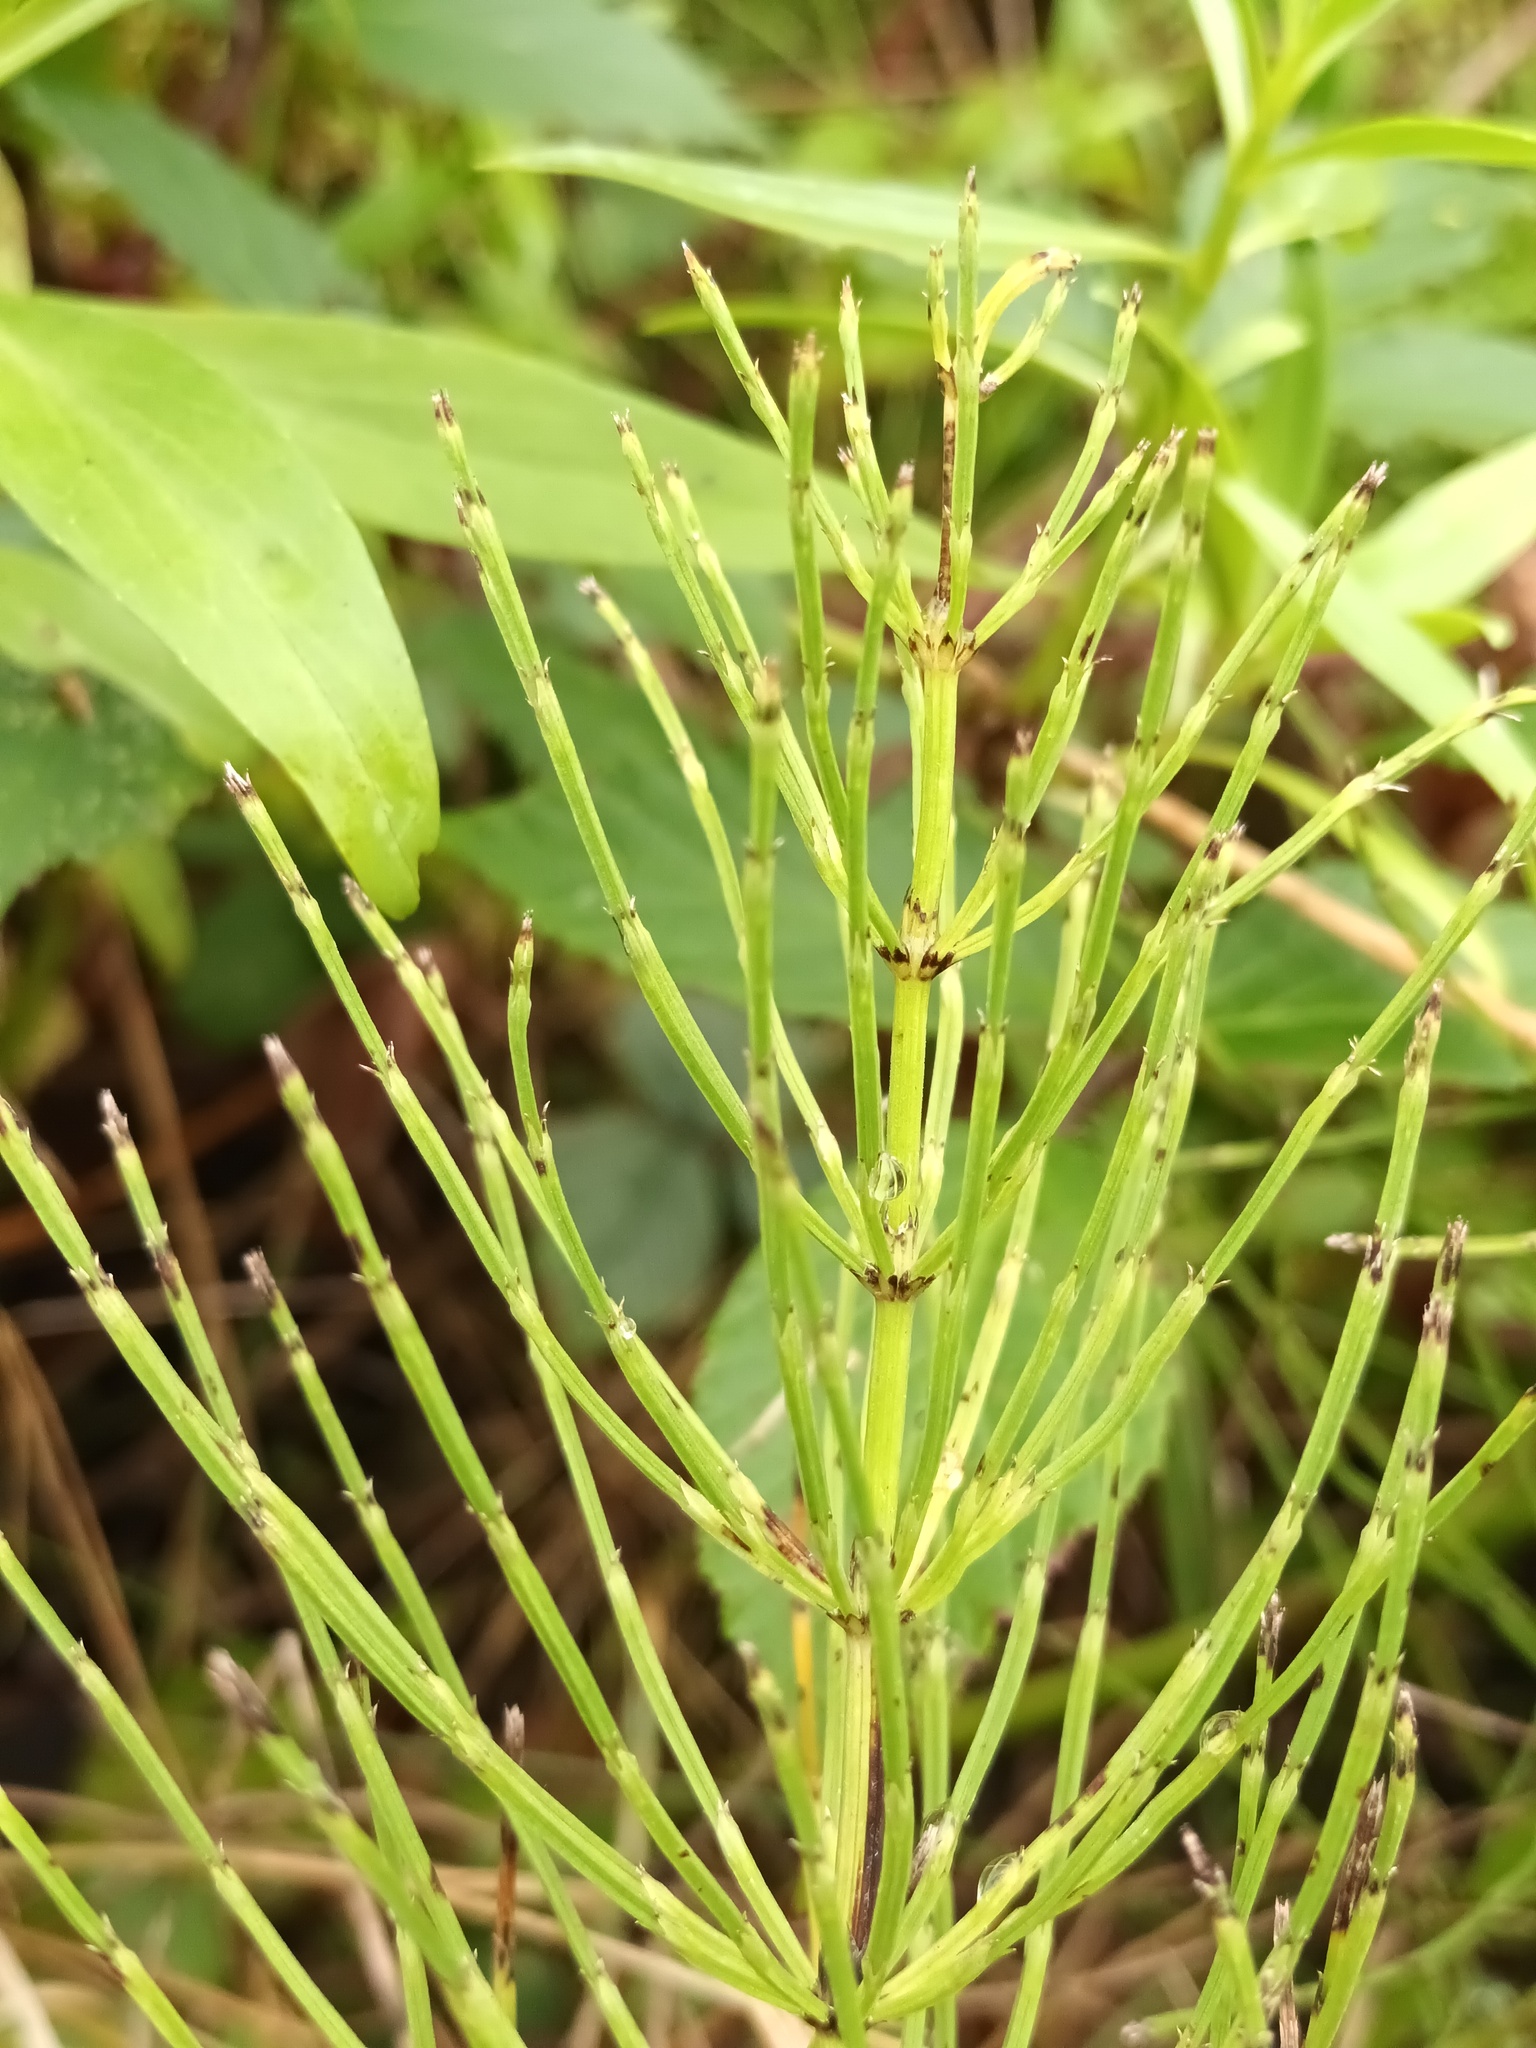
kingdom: Plantae
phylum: Tracheophyta
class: Polypodiopsida
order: Equisetales
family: Equisetaceae
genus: Equisetum
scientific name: Equisetum arvense
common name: Field horsetail
